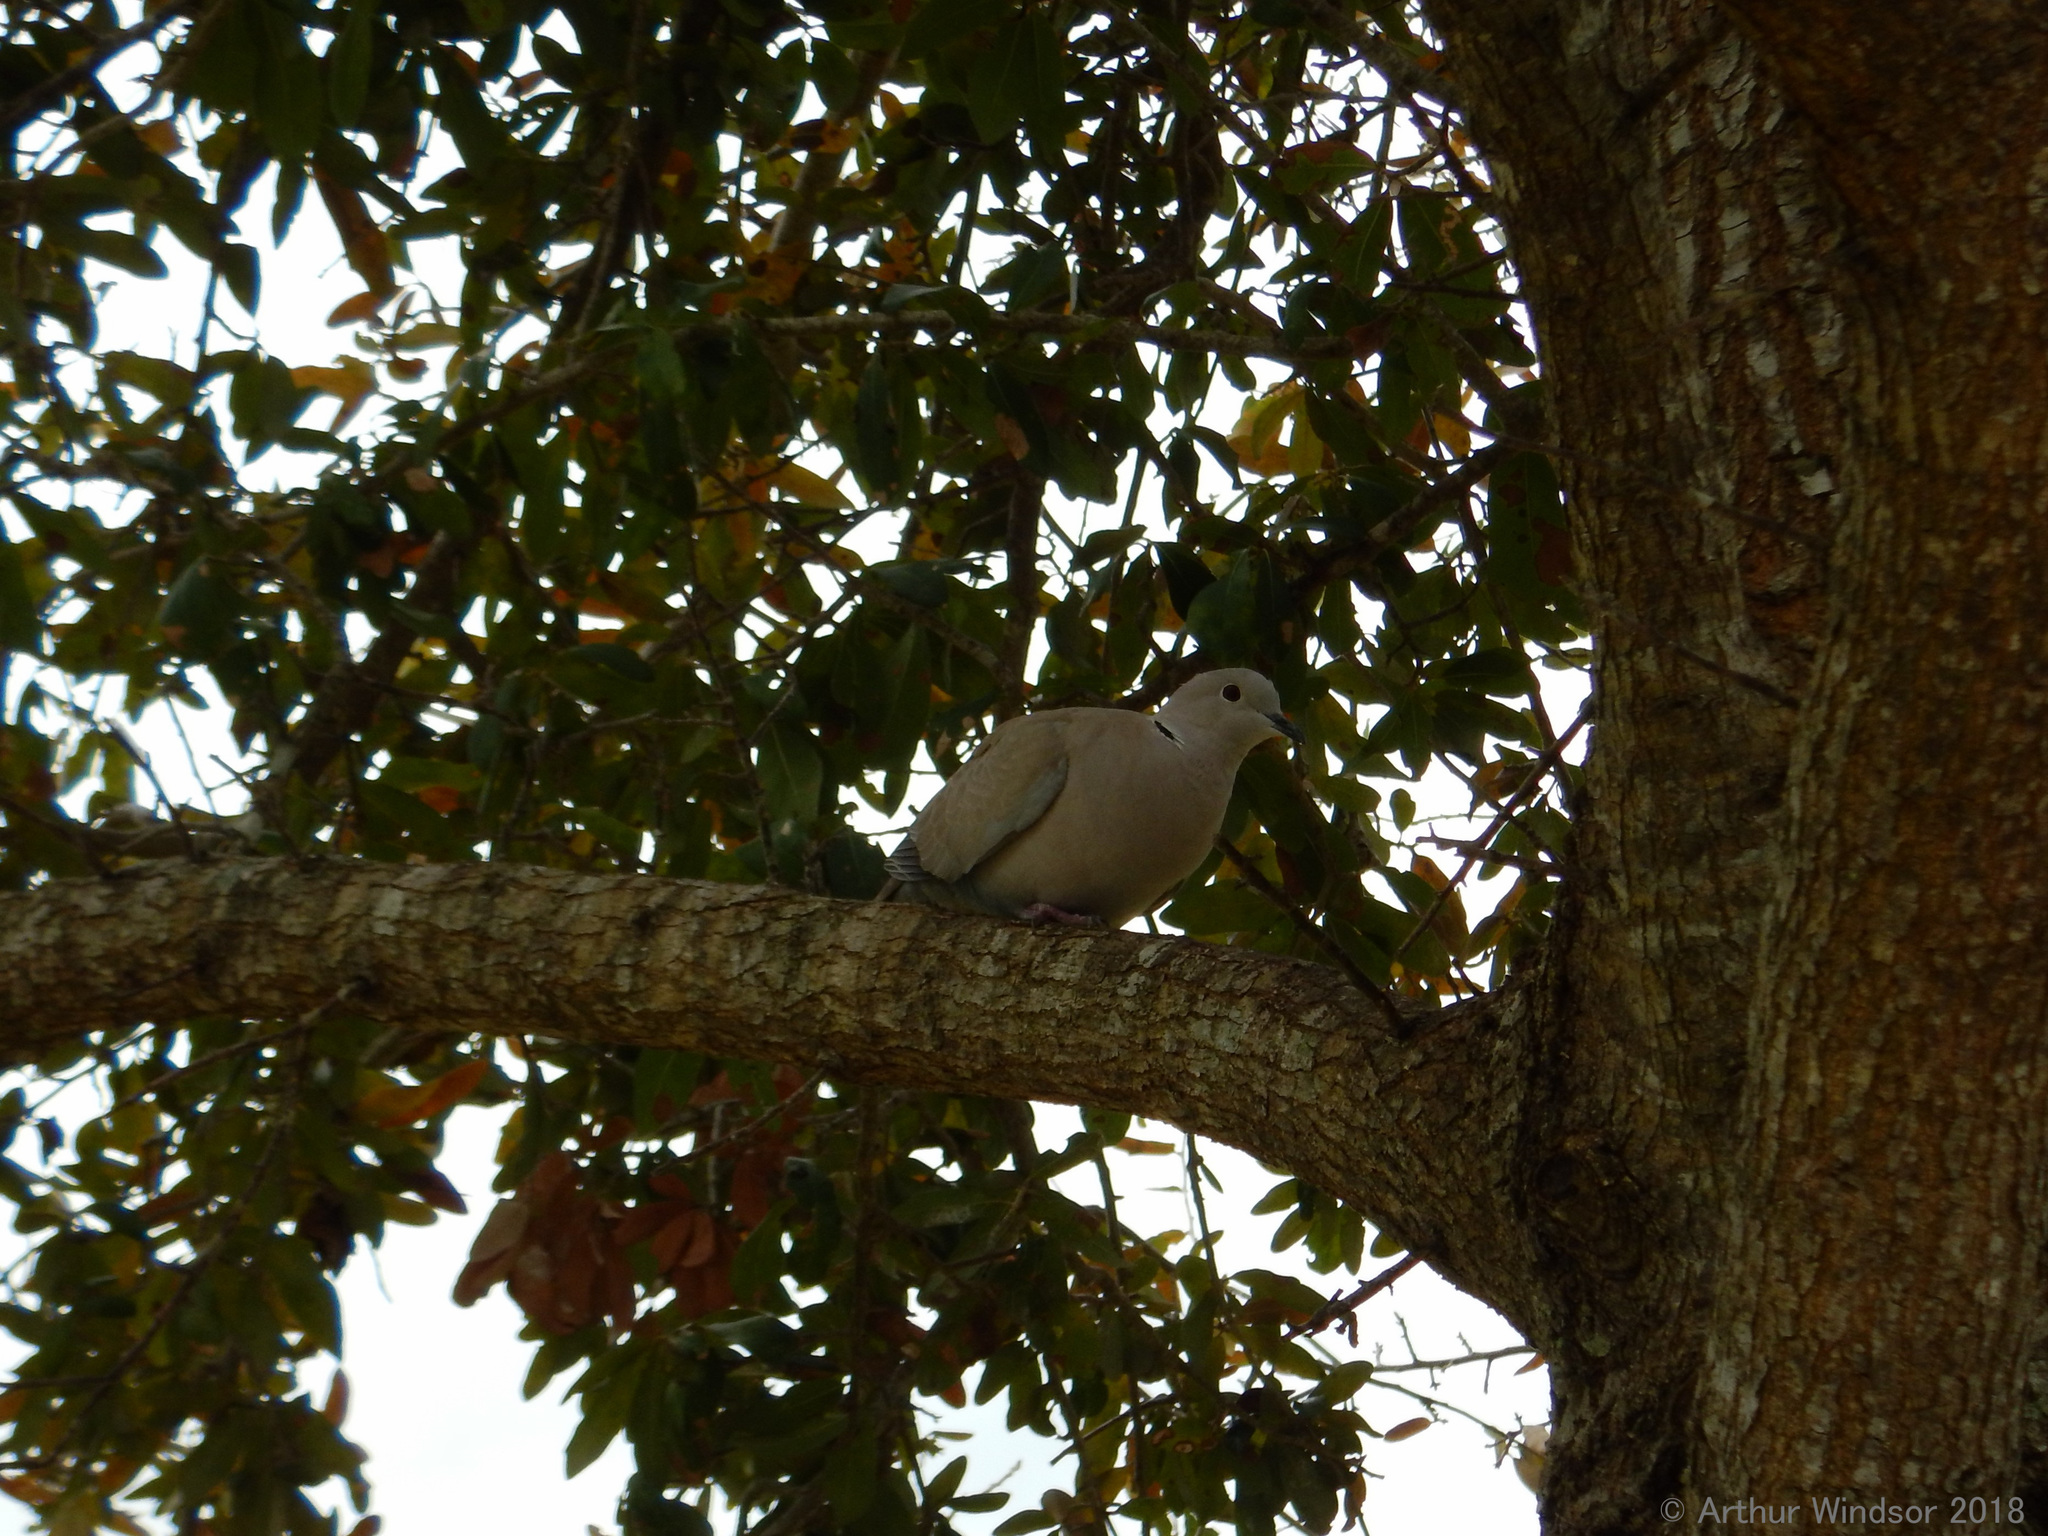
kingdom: Animalia
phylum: Chordata
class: Aves
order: Columbiformes
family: Columbidae
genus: Streptopelia
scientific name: Streptopelia decaocto
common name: Eurasian collared dove
